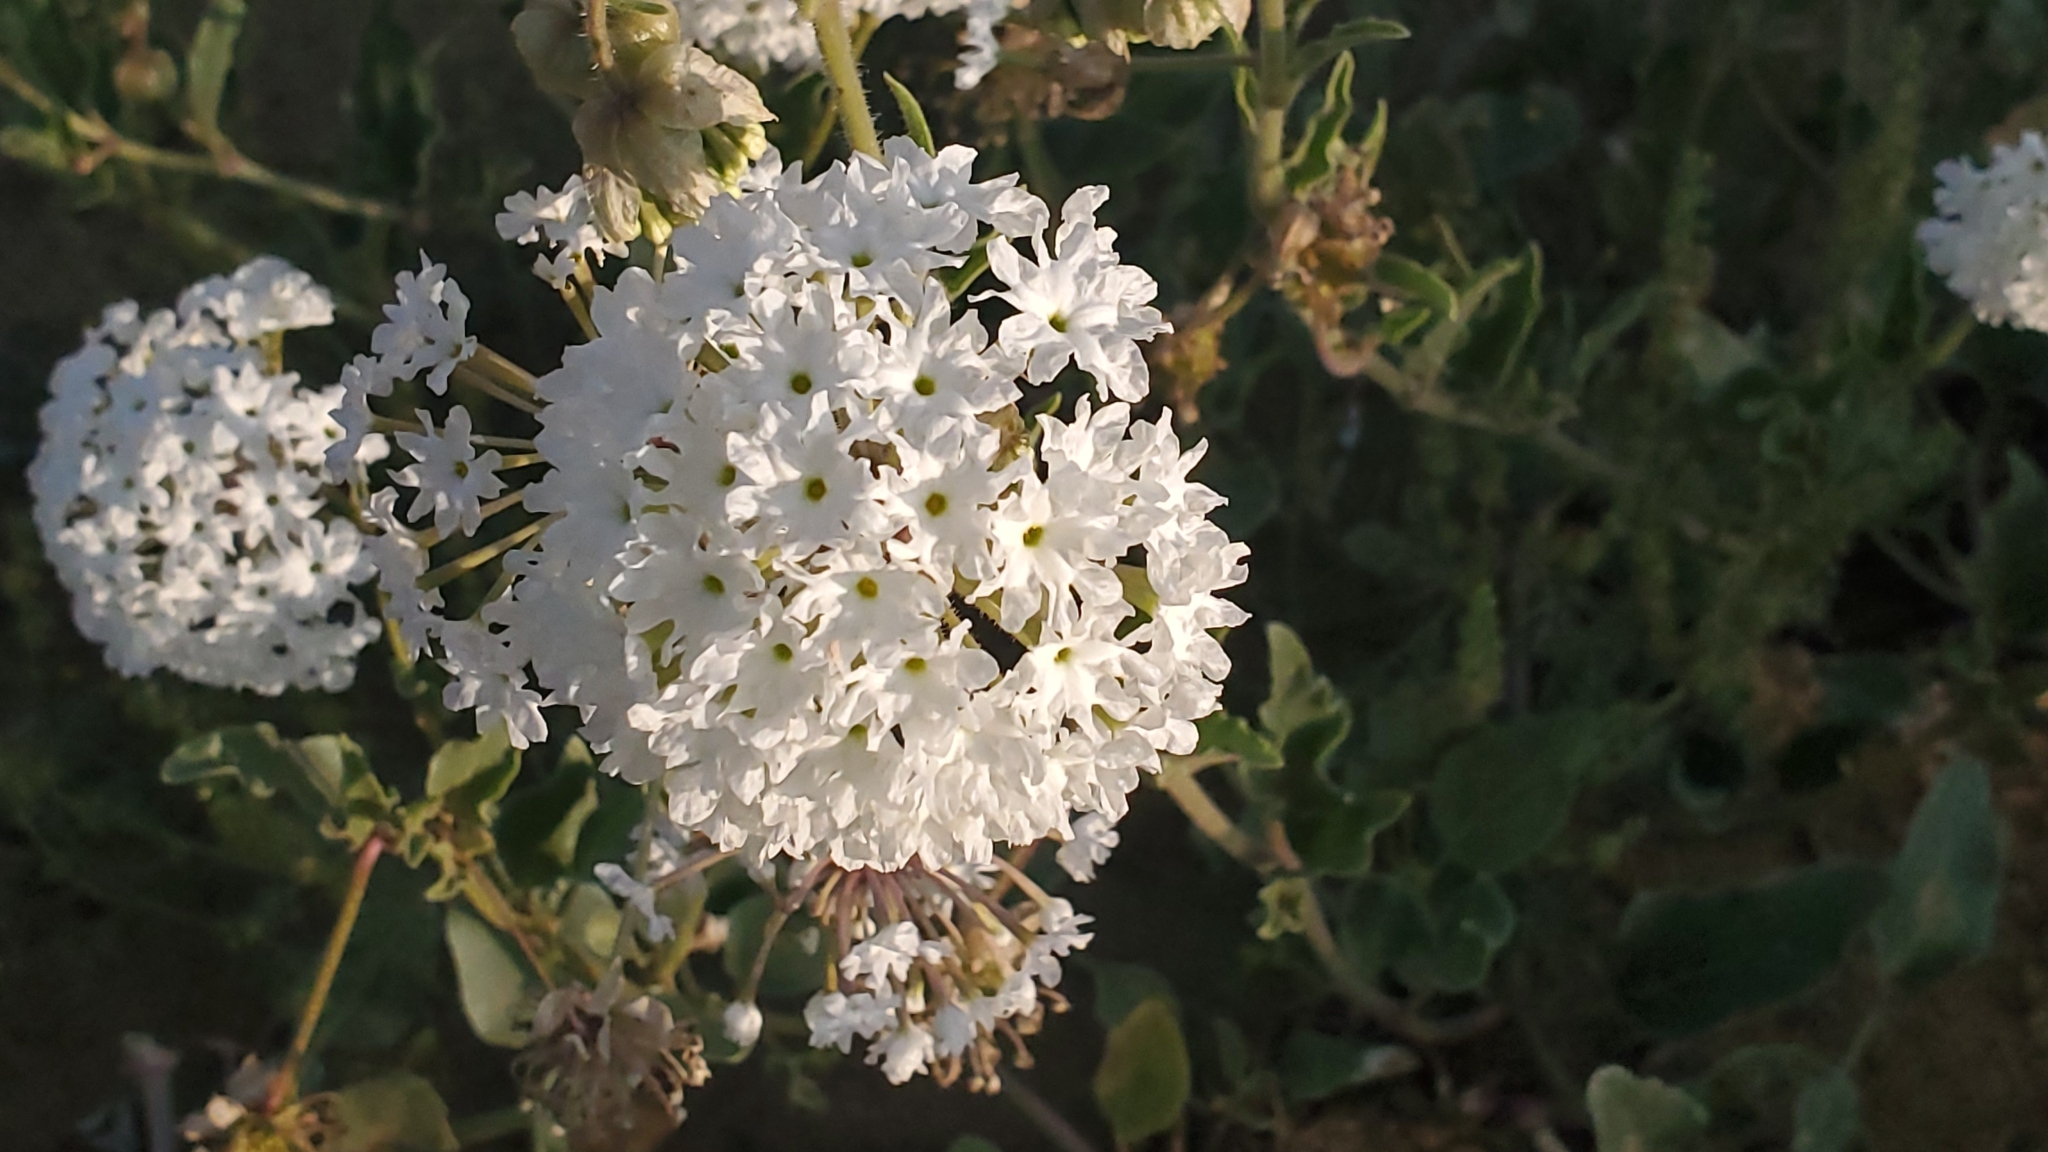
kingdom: Plantae
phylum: Tracheophyta
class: Magnoliopsida
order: Caryophyllales
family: Nyctaginaceae
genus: Abronia
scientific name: Abronia fragrans
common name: Fragrant sand-verbena
